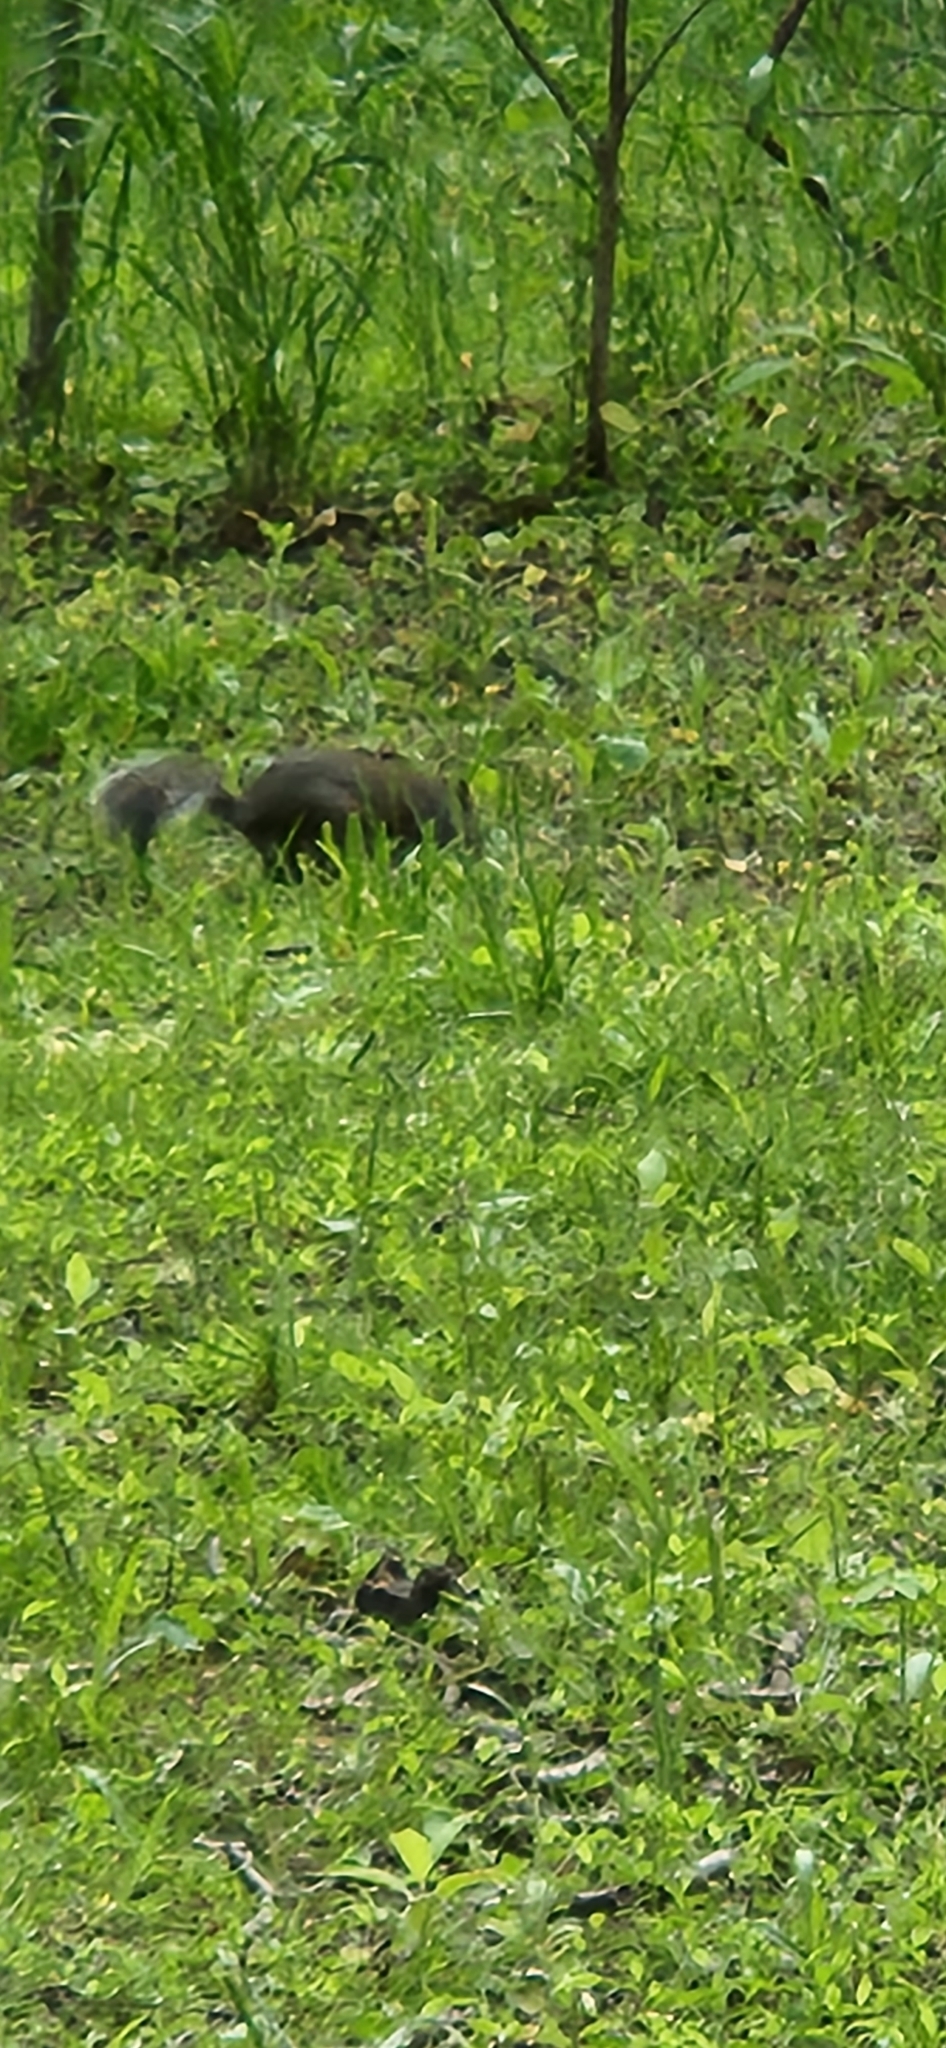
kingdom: Animalia
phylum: Chordata
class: Mammalia
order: Rodentia
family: Sciuridae
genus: Sciurus
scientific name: Sciurus carolinensis
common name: Eastern gray squirrel
